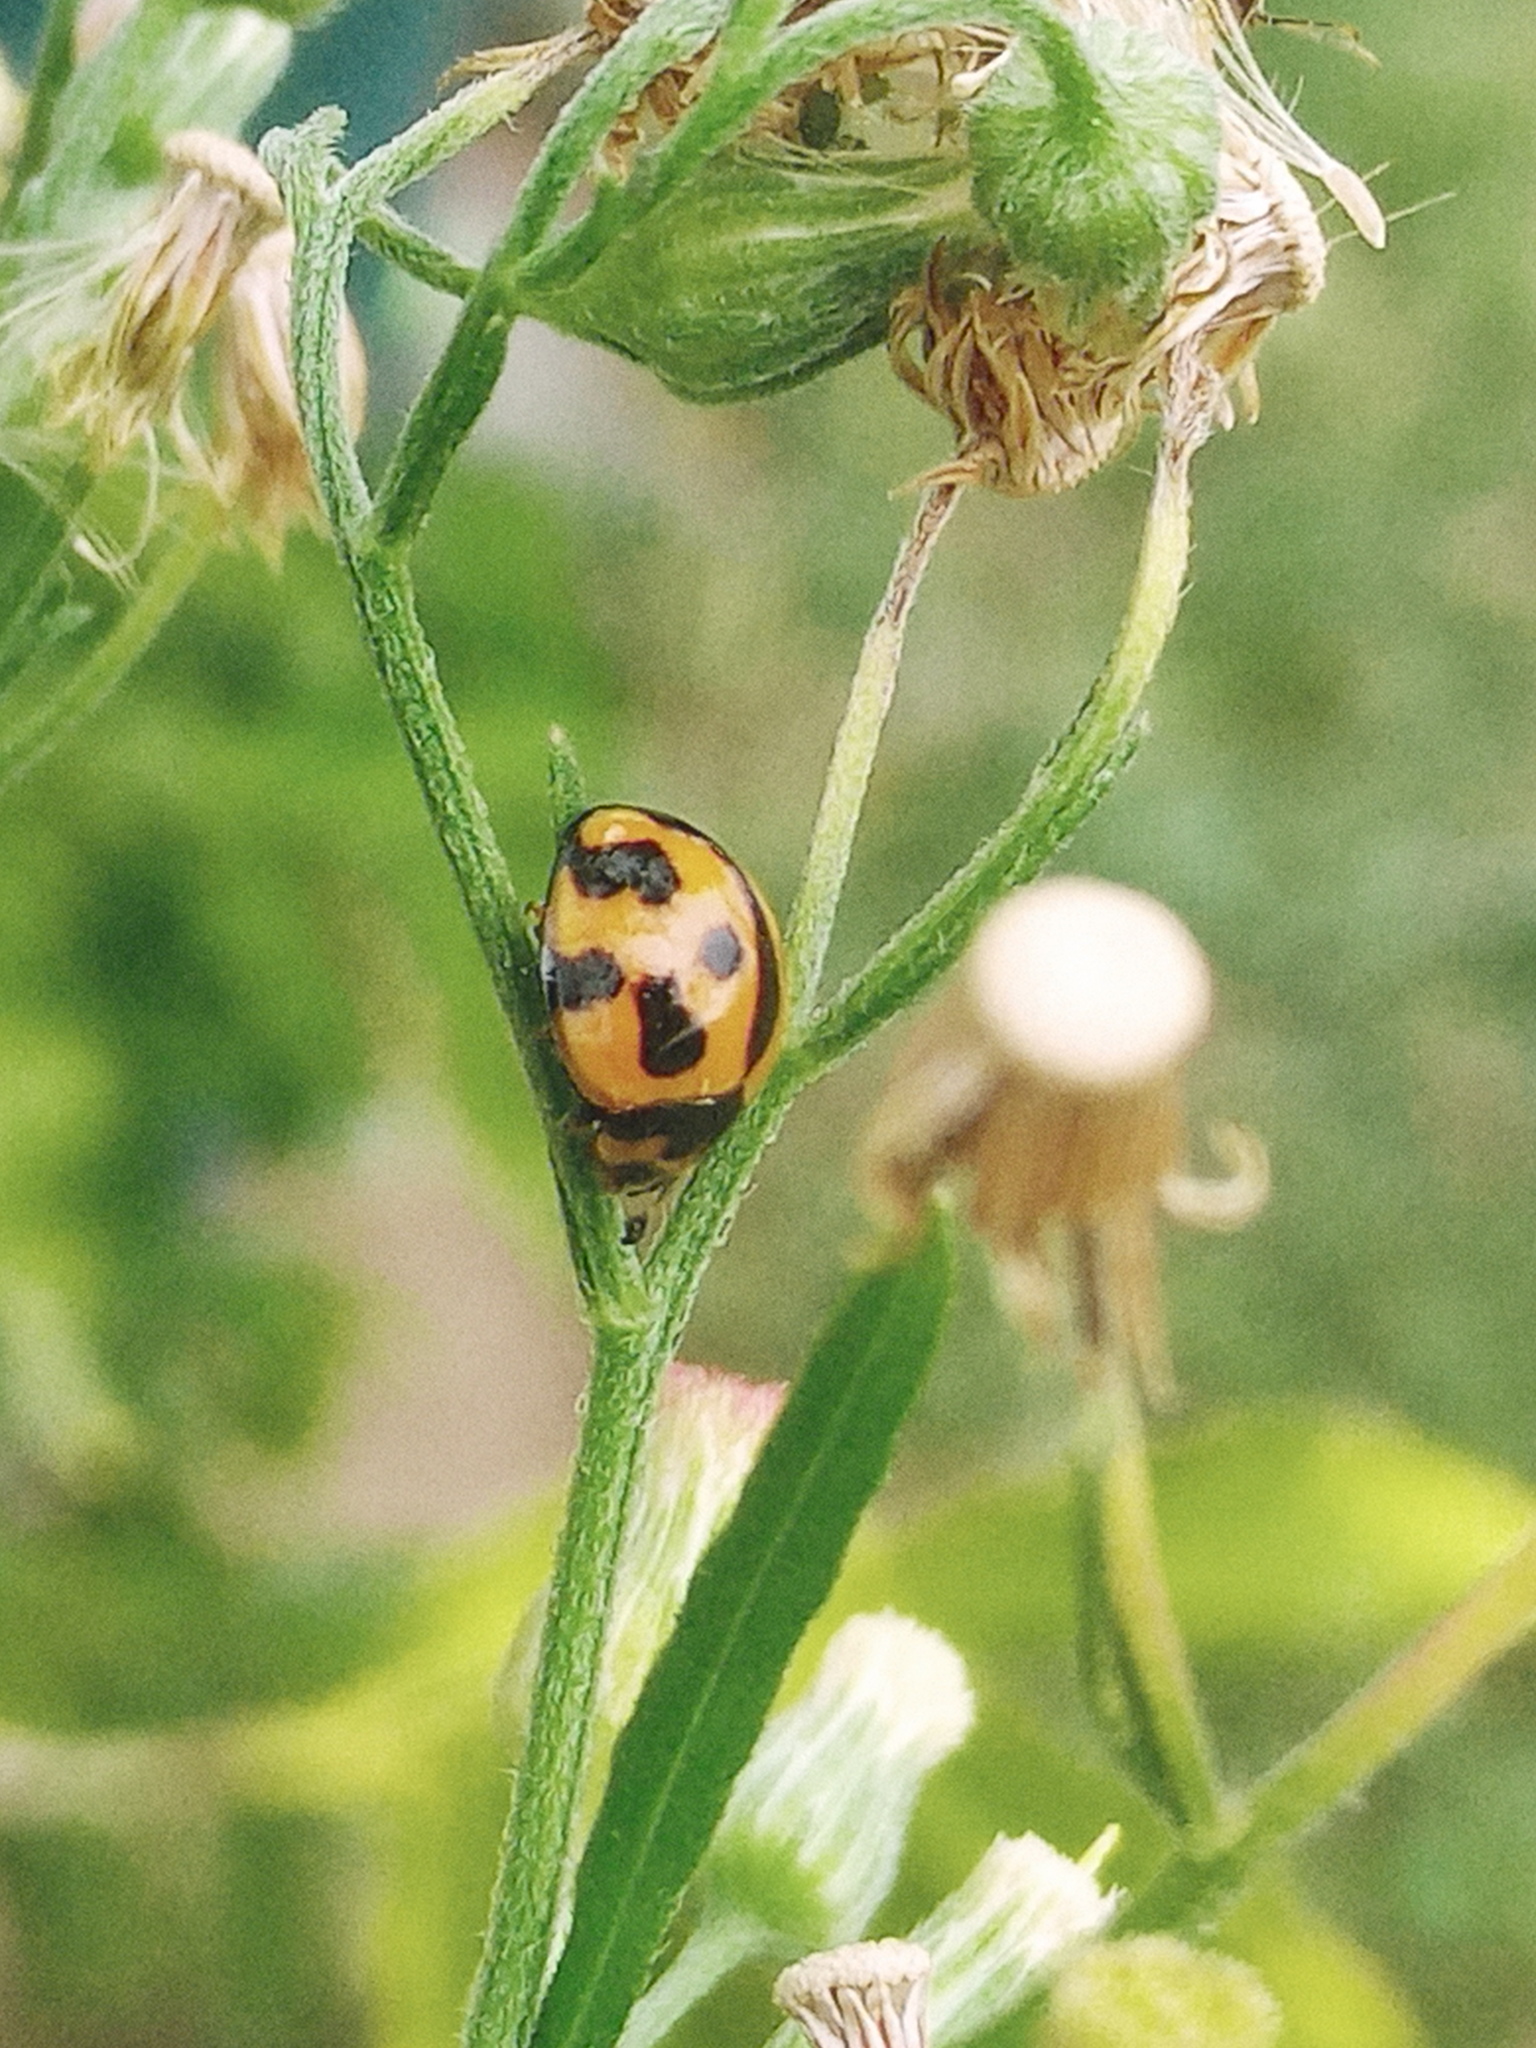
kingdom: Animalia
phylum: Arthropoda
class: Insecta
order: Coleoptera
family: Coccinellidae
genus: Coelophora
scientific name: Coelophora inaequalis
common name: Common australian lady beetle
